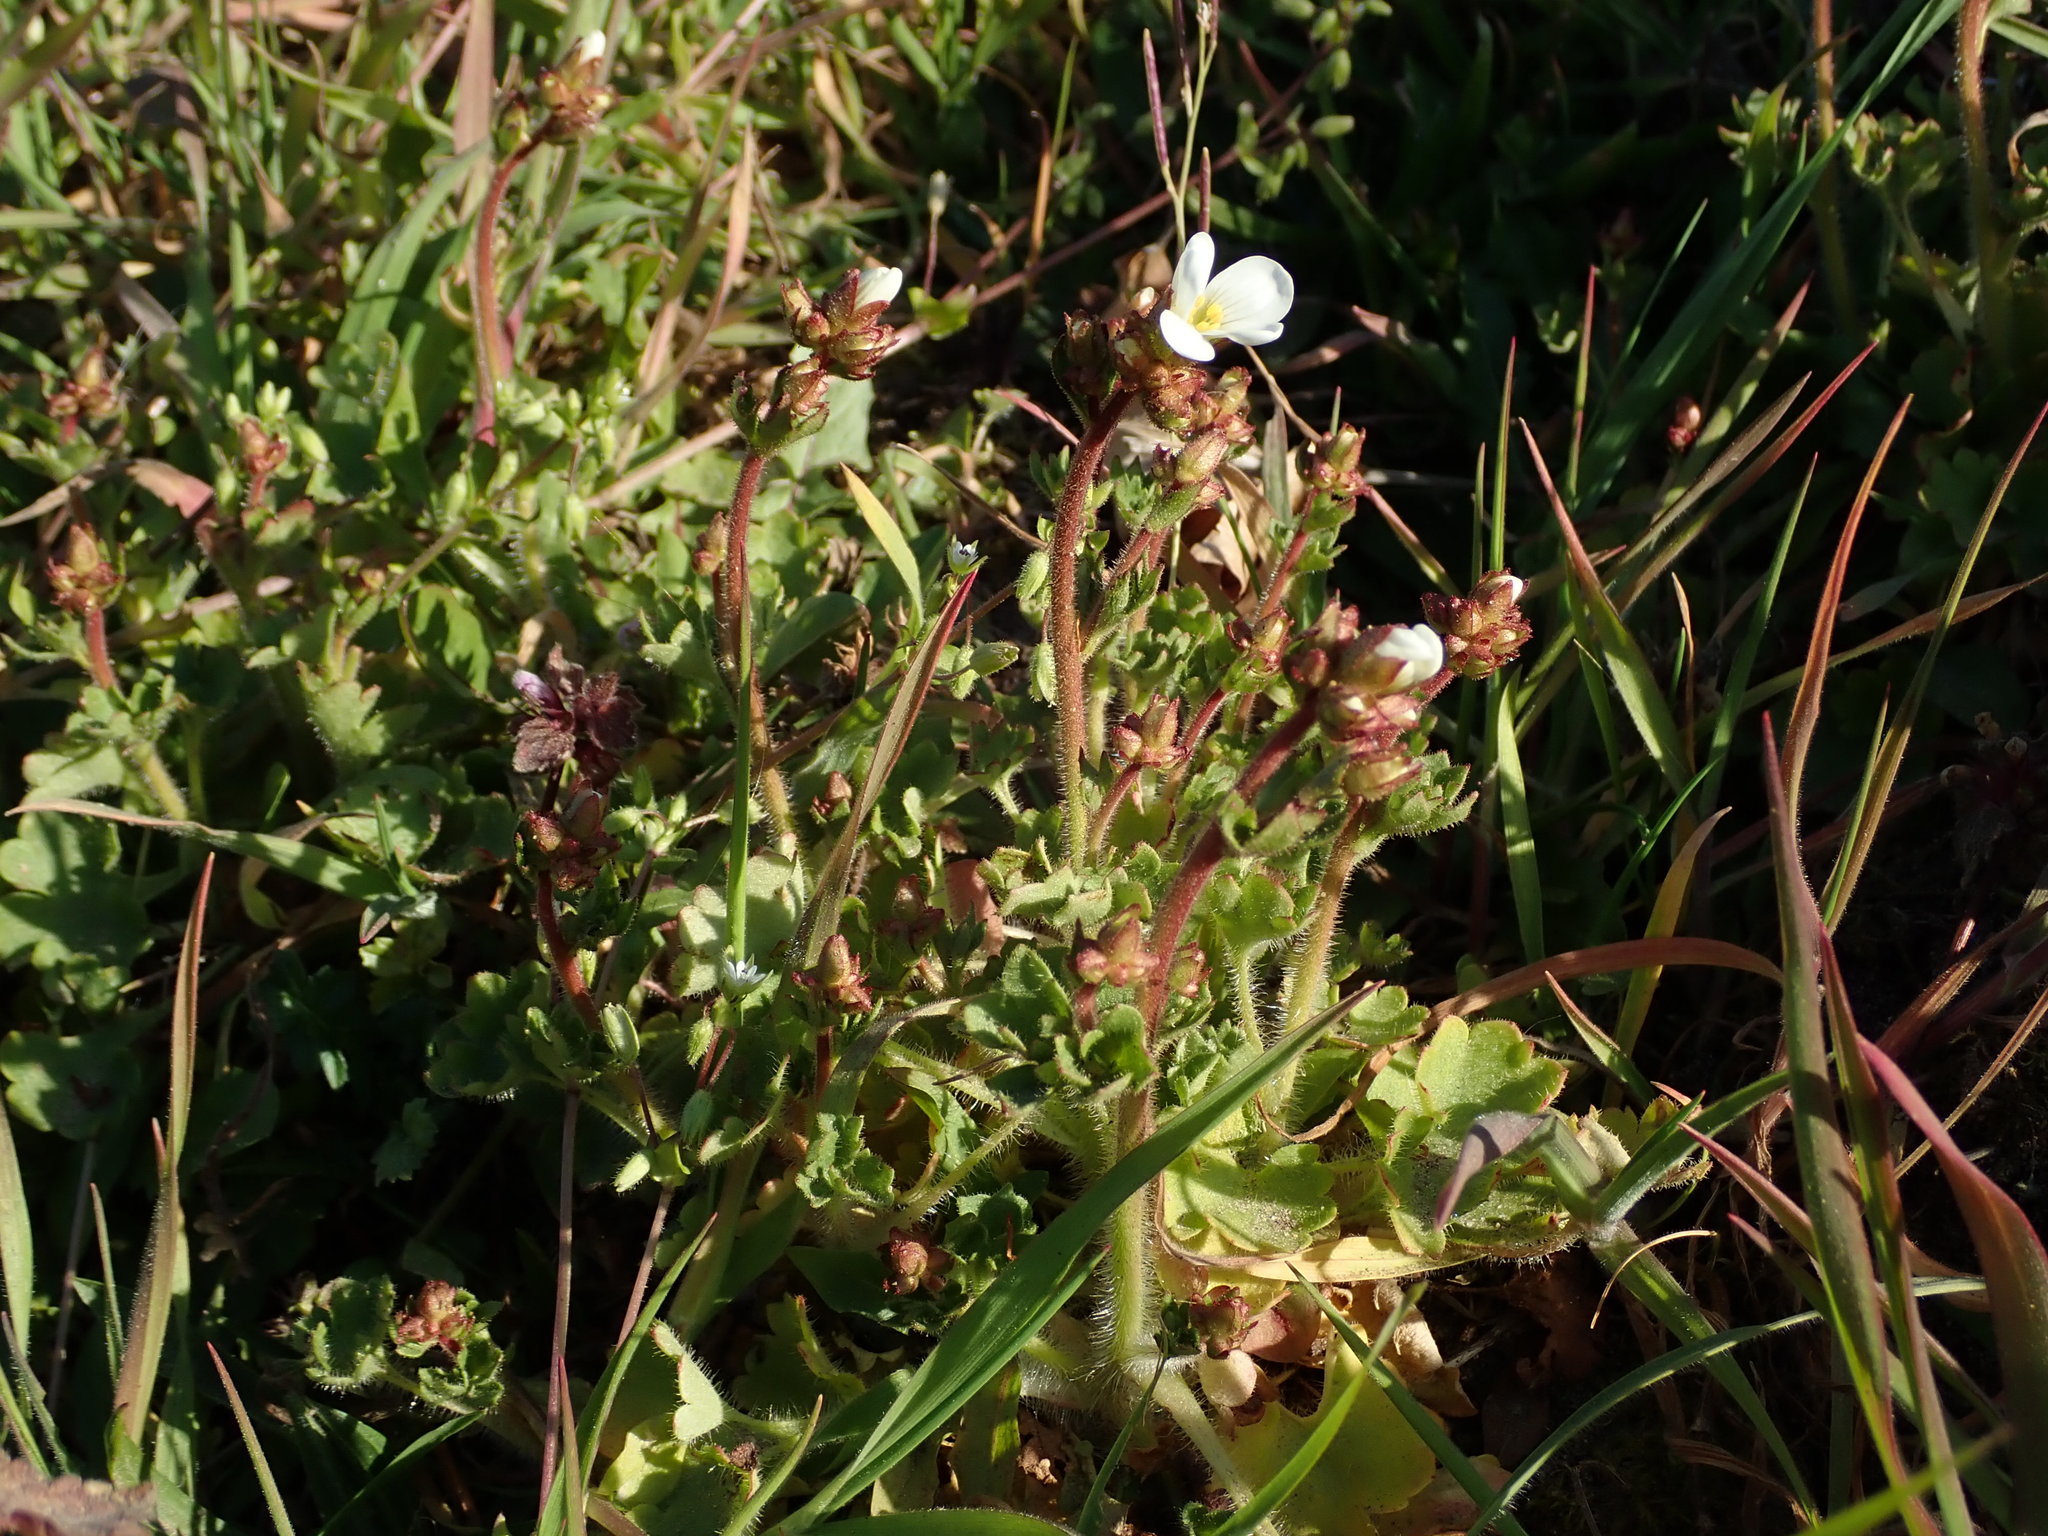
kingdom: Plantae
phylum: Tracheophyta
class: Magnoliopsida
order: Saxifragales
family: Saxifragaceae
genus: Saxifraga
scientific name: Saxifraga granulata
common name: Meadow saxifrage
